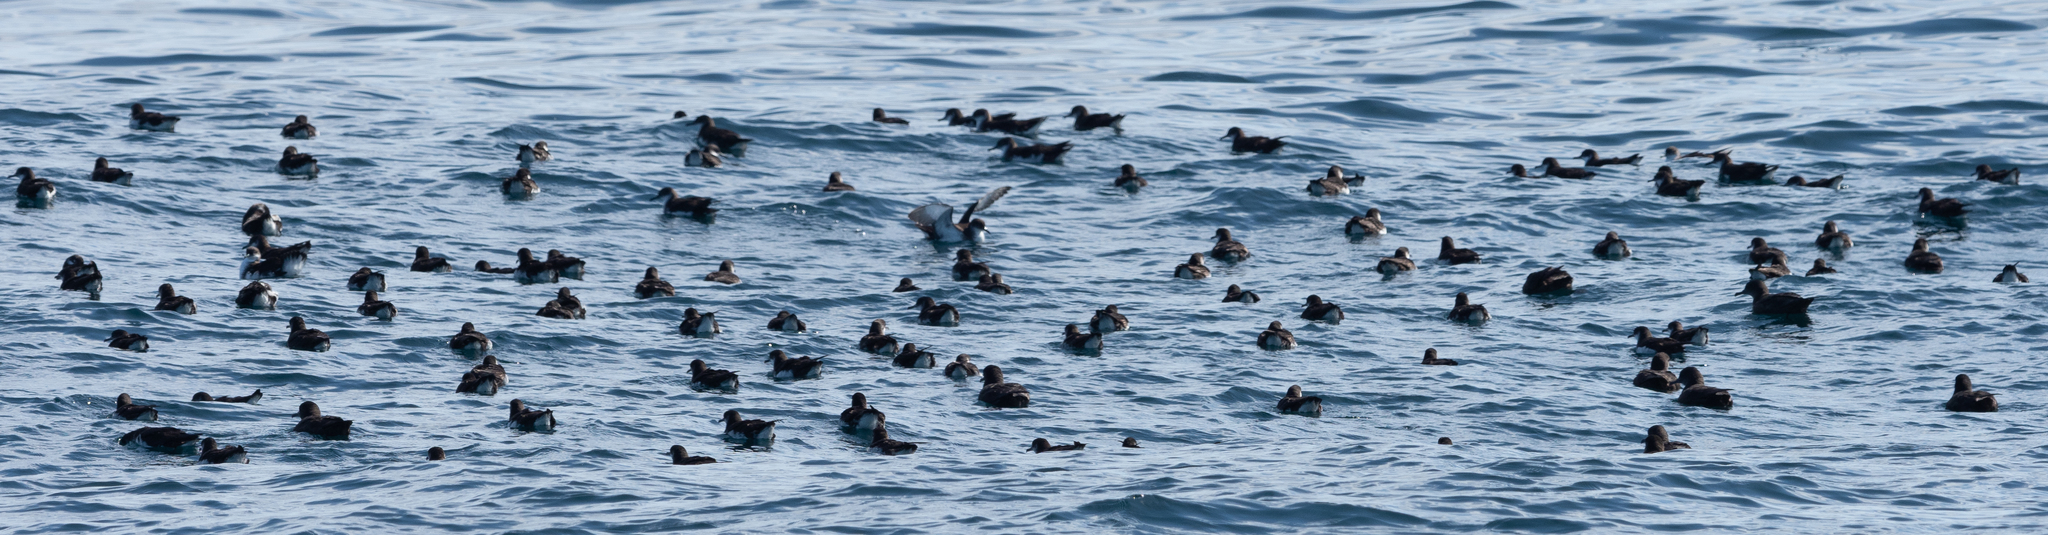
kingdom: Animalia
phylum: Chordata
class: Aves
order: Procellariiformes
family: Procellariidae
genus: Puffinus
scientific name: Puffinus puffinus
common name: Manx shearwater
